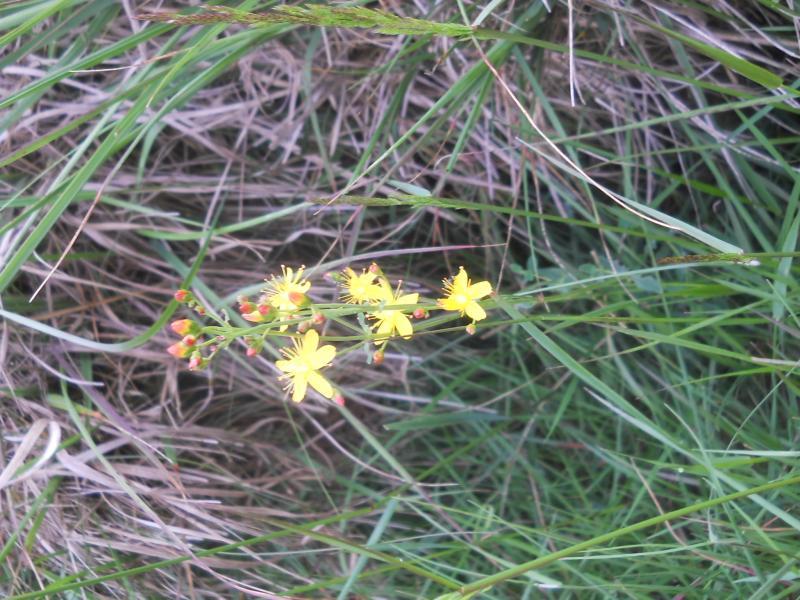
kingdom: Plantae
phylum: Tracheophyta
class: Magnoliopsida
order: Malpighiales
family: Hypericaceae
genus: Hypericum
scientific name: Hypericum pulchrum
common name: Slender st. john's-wort
